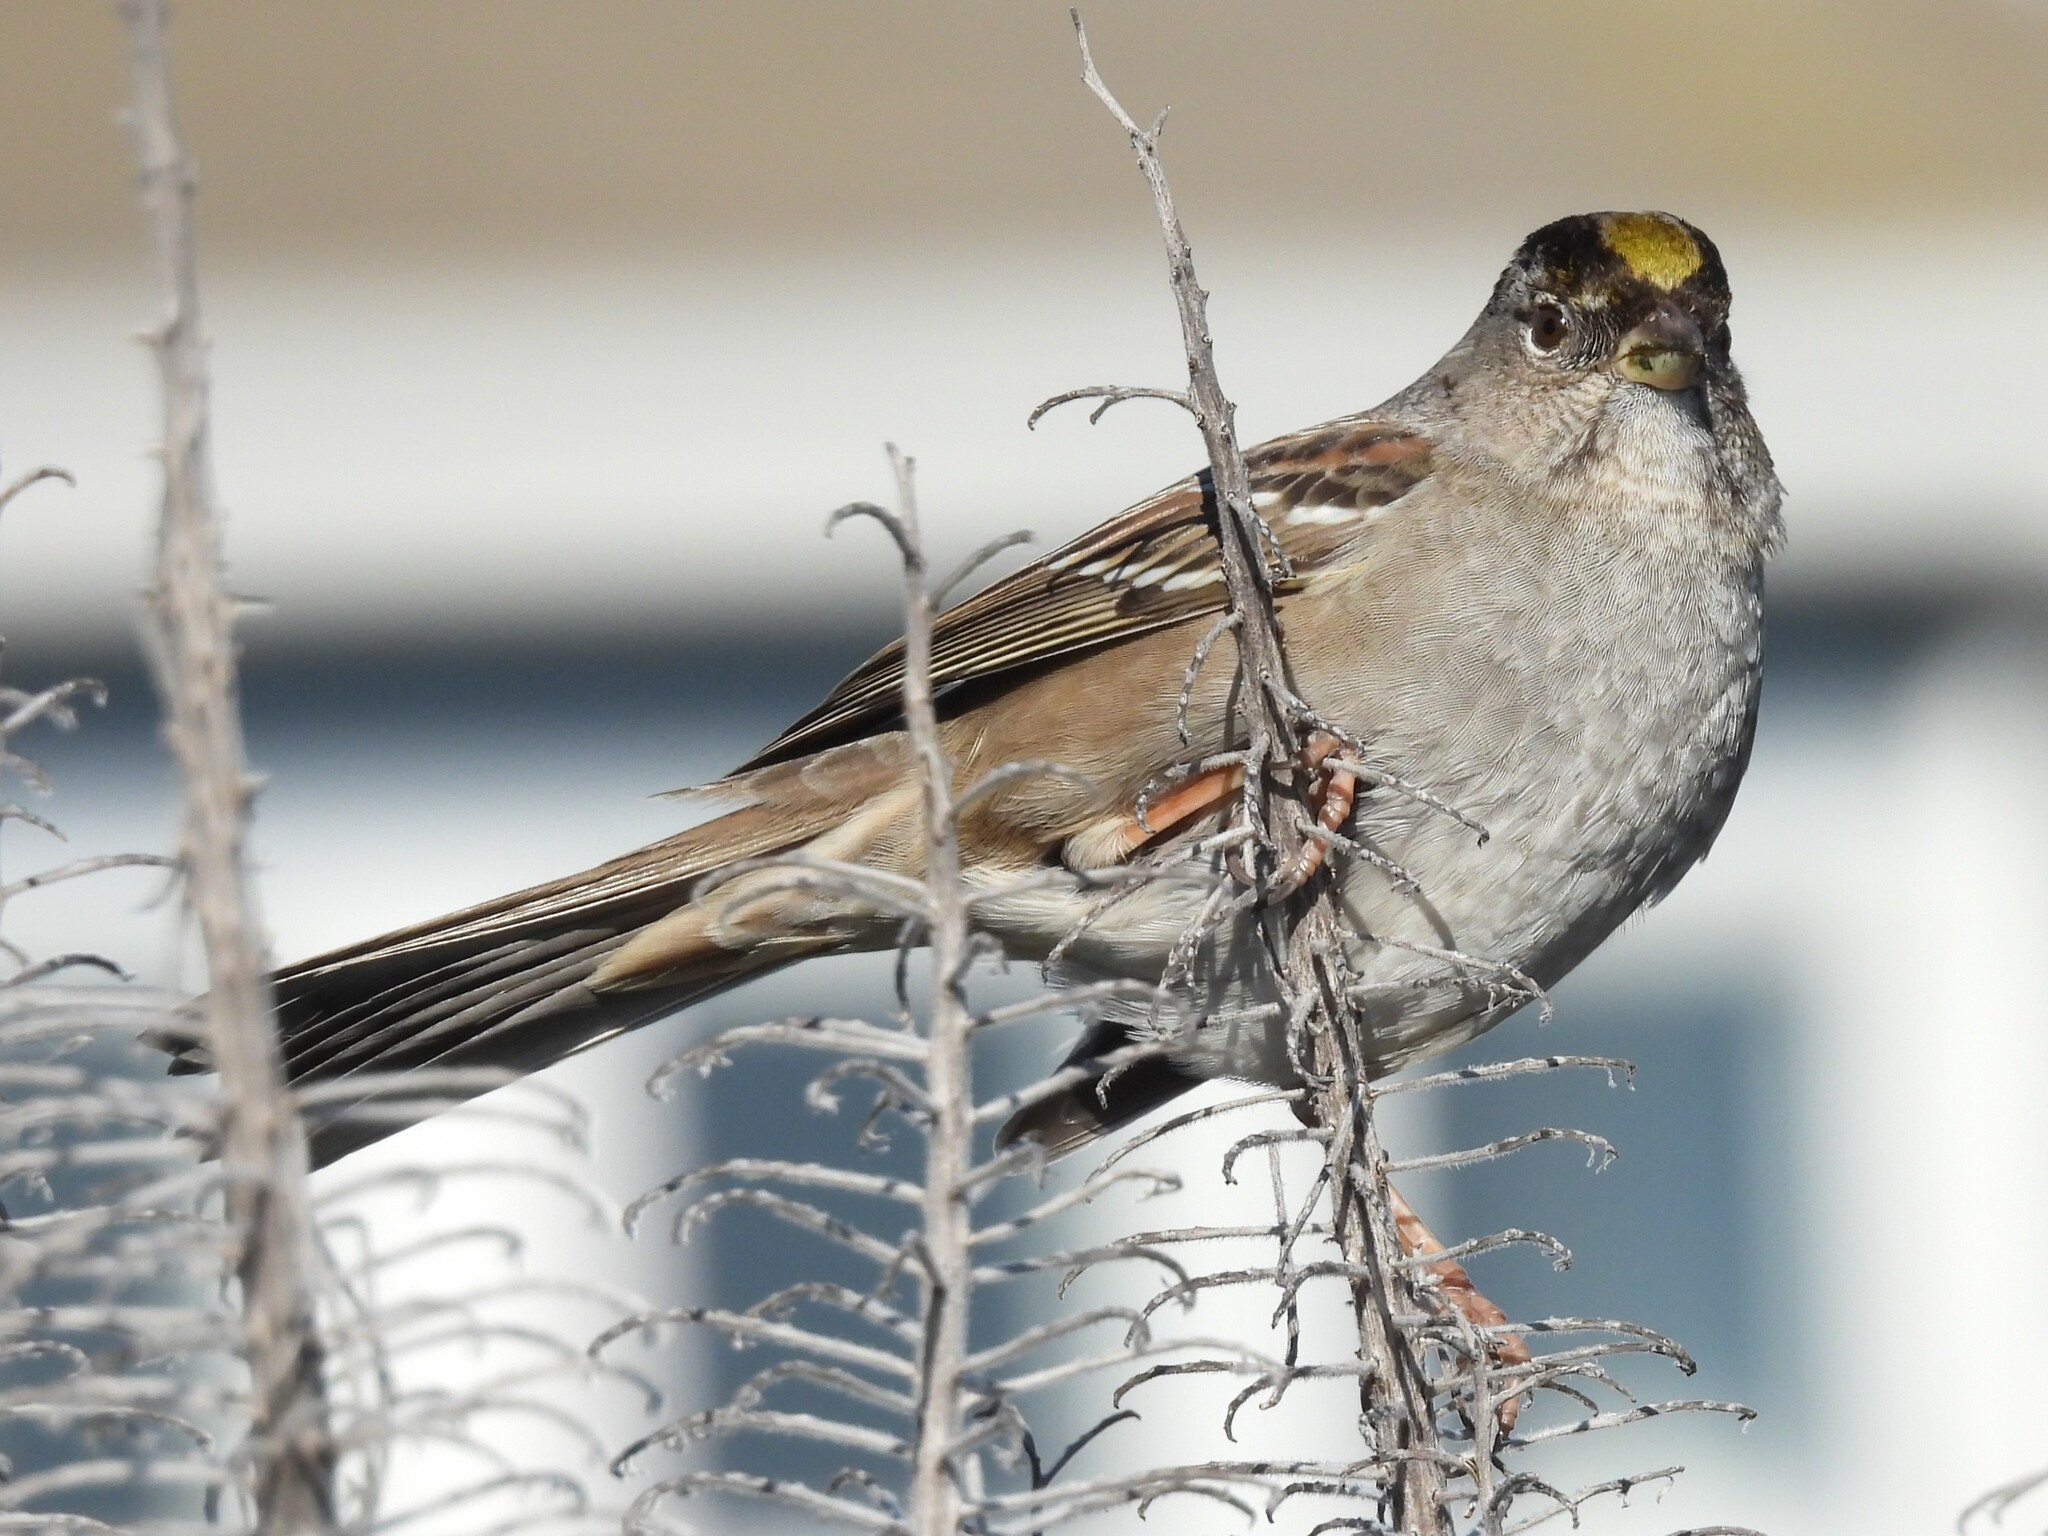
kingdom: Animalia
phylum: Chordata
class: Aves
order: Passeriformes
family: Passerellidae
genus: Zonotrichia
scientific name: Zonotrichia atricapilla
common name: Golden-crowned sparrow
